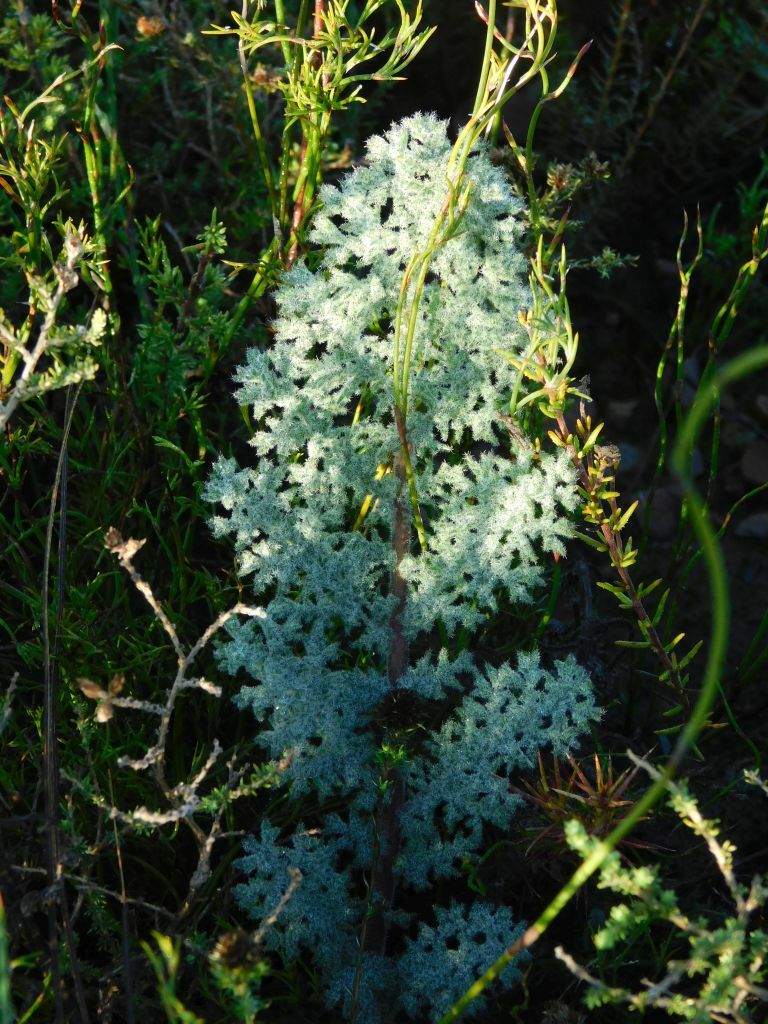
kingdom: Plantae
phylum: Tracheophyta
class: Magnoliopsida
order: Geraniales
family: Geraniaceae
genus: Pelargonium
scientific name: Pelargonium triste
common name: Night-scent pelargonium
